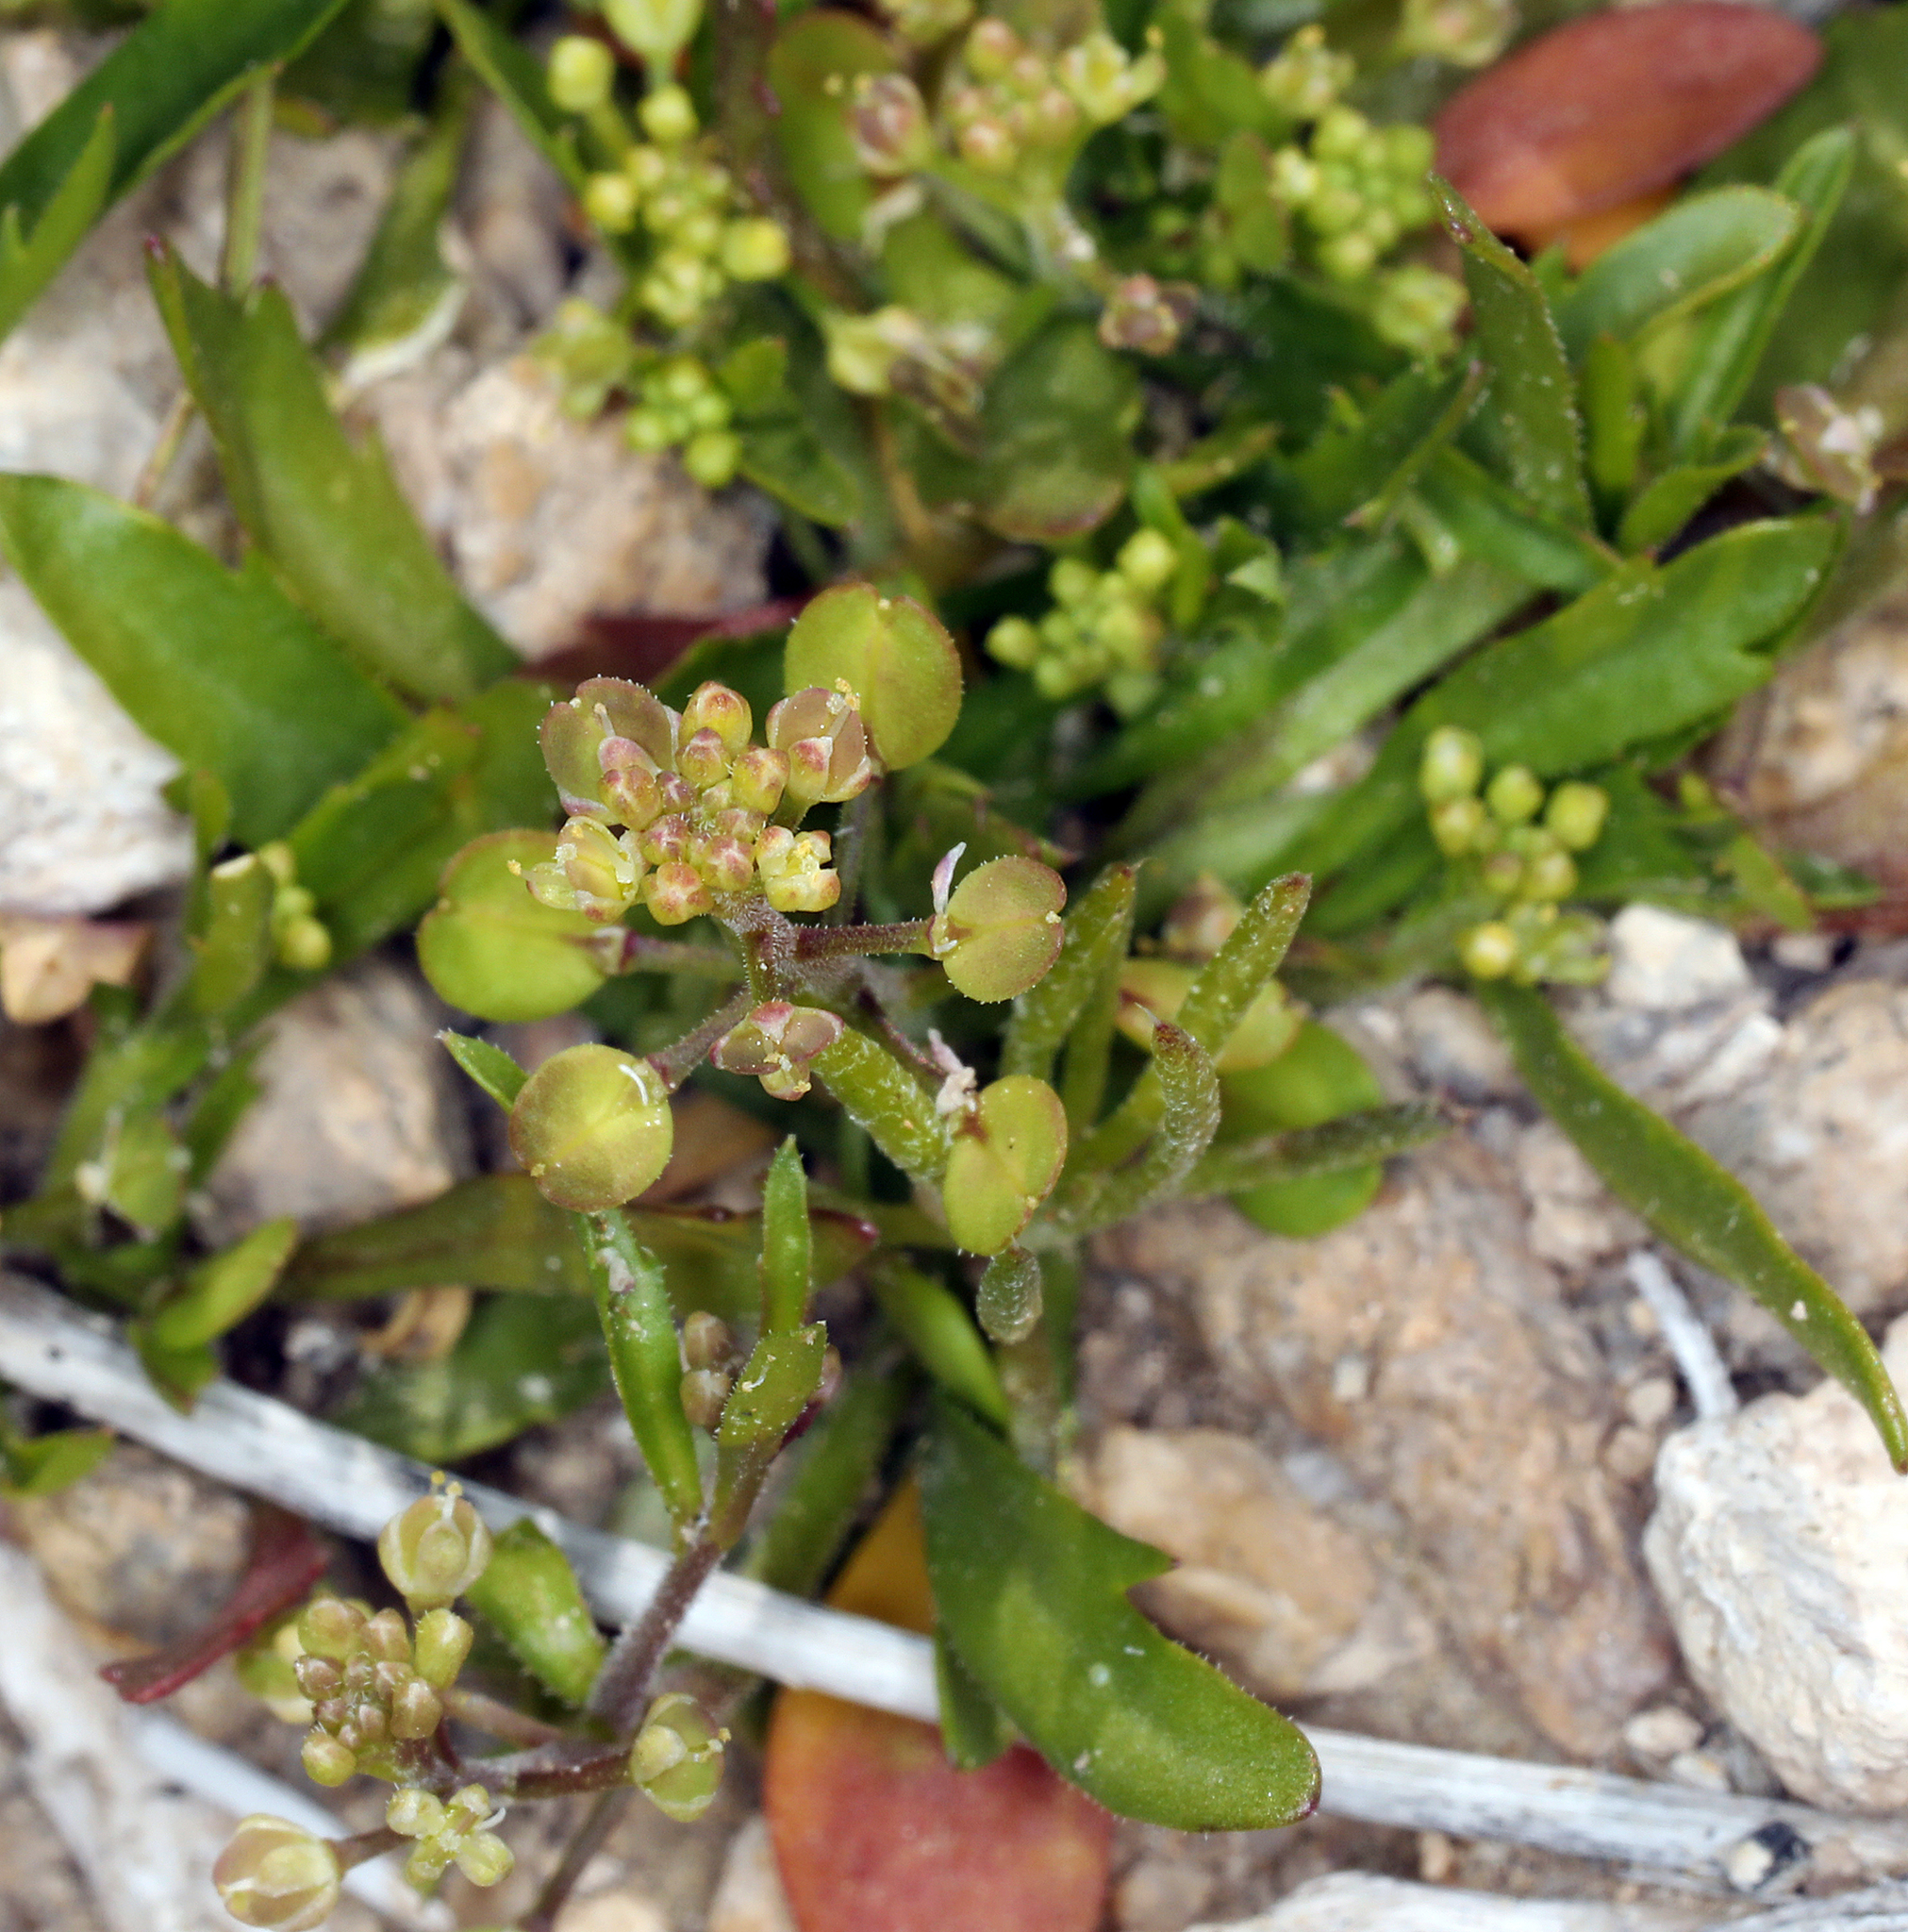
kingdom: Plantae
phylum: Tracheophyta
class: Magnoliopsida
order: Brassicales
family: Brassicaceae
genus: Lepidium
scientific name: Lepidium lasiocarpum
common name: Hairy-pod pepperwort
